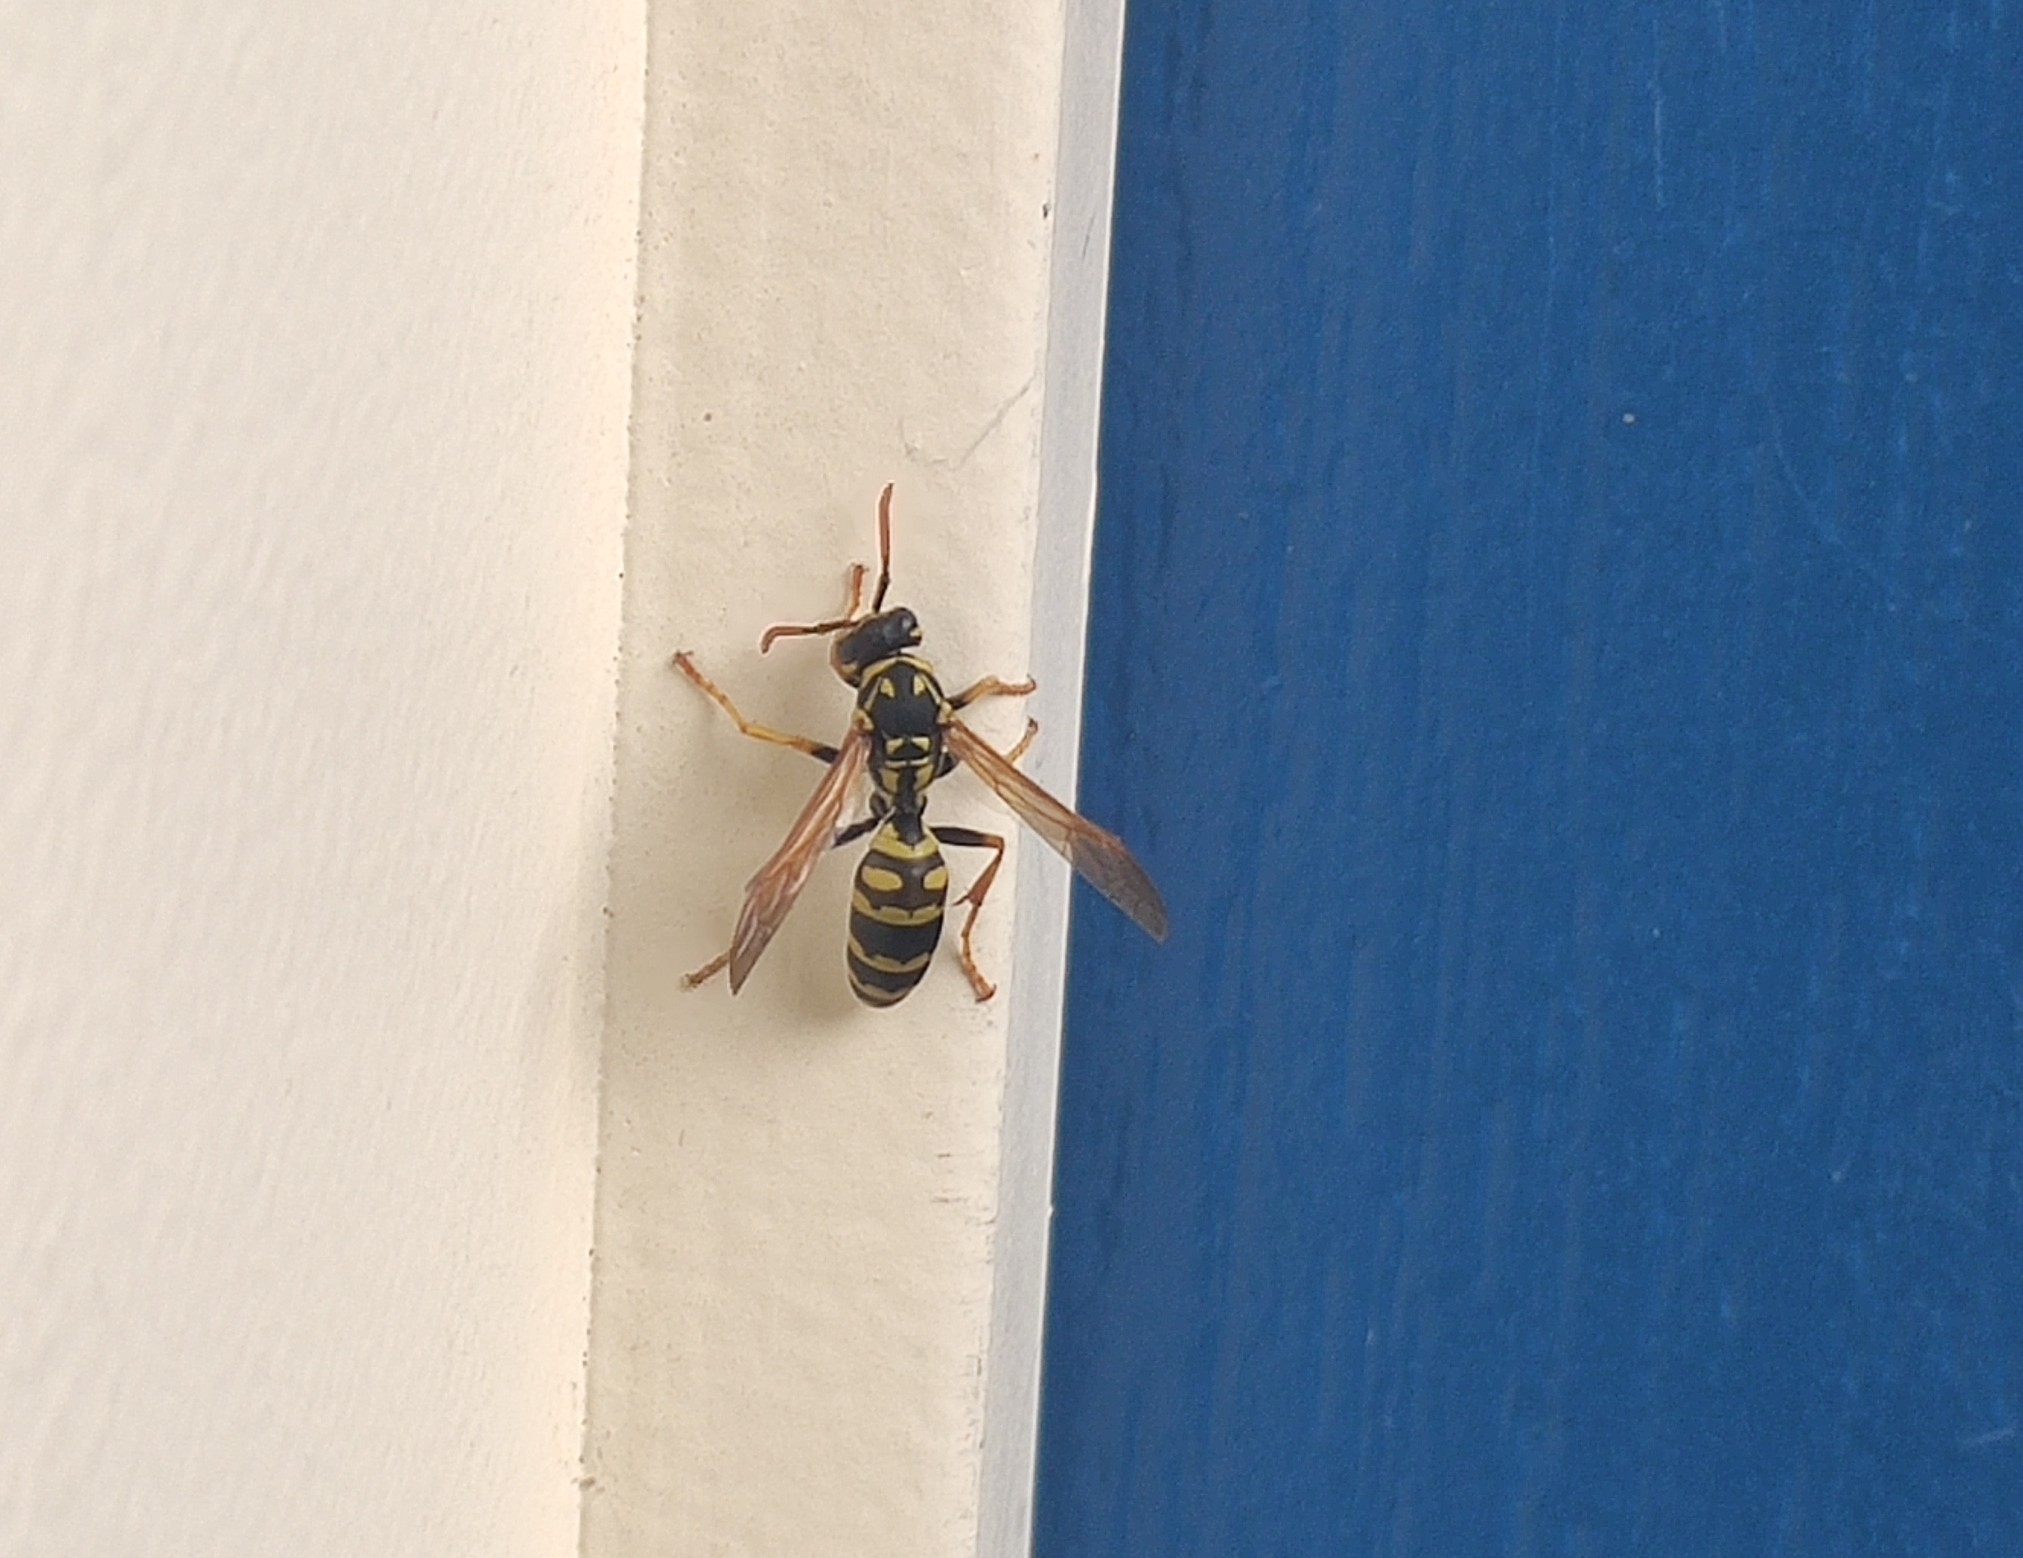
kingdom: Animalia
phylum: Arthropoda
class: Insecta
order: Hymenoptera
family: Eumenidae
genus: Polistes
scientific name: Polistes dominula
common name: Paper wasp
